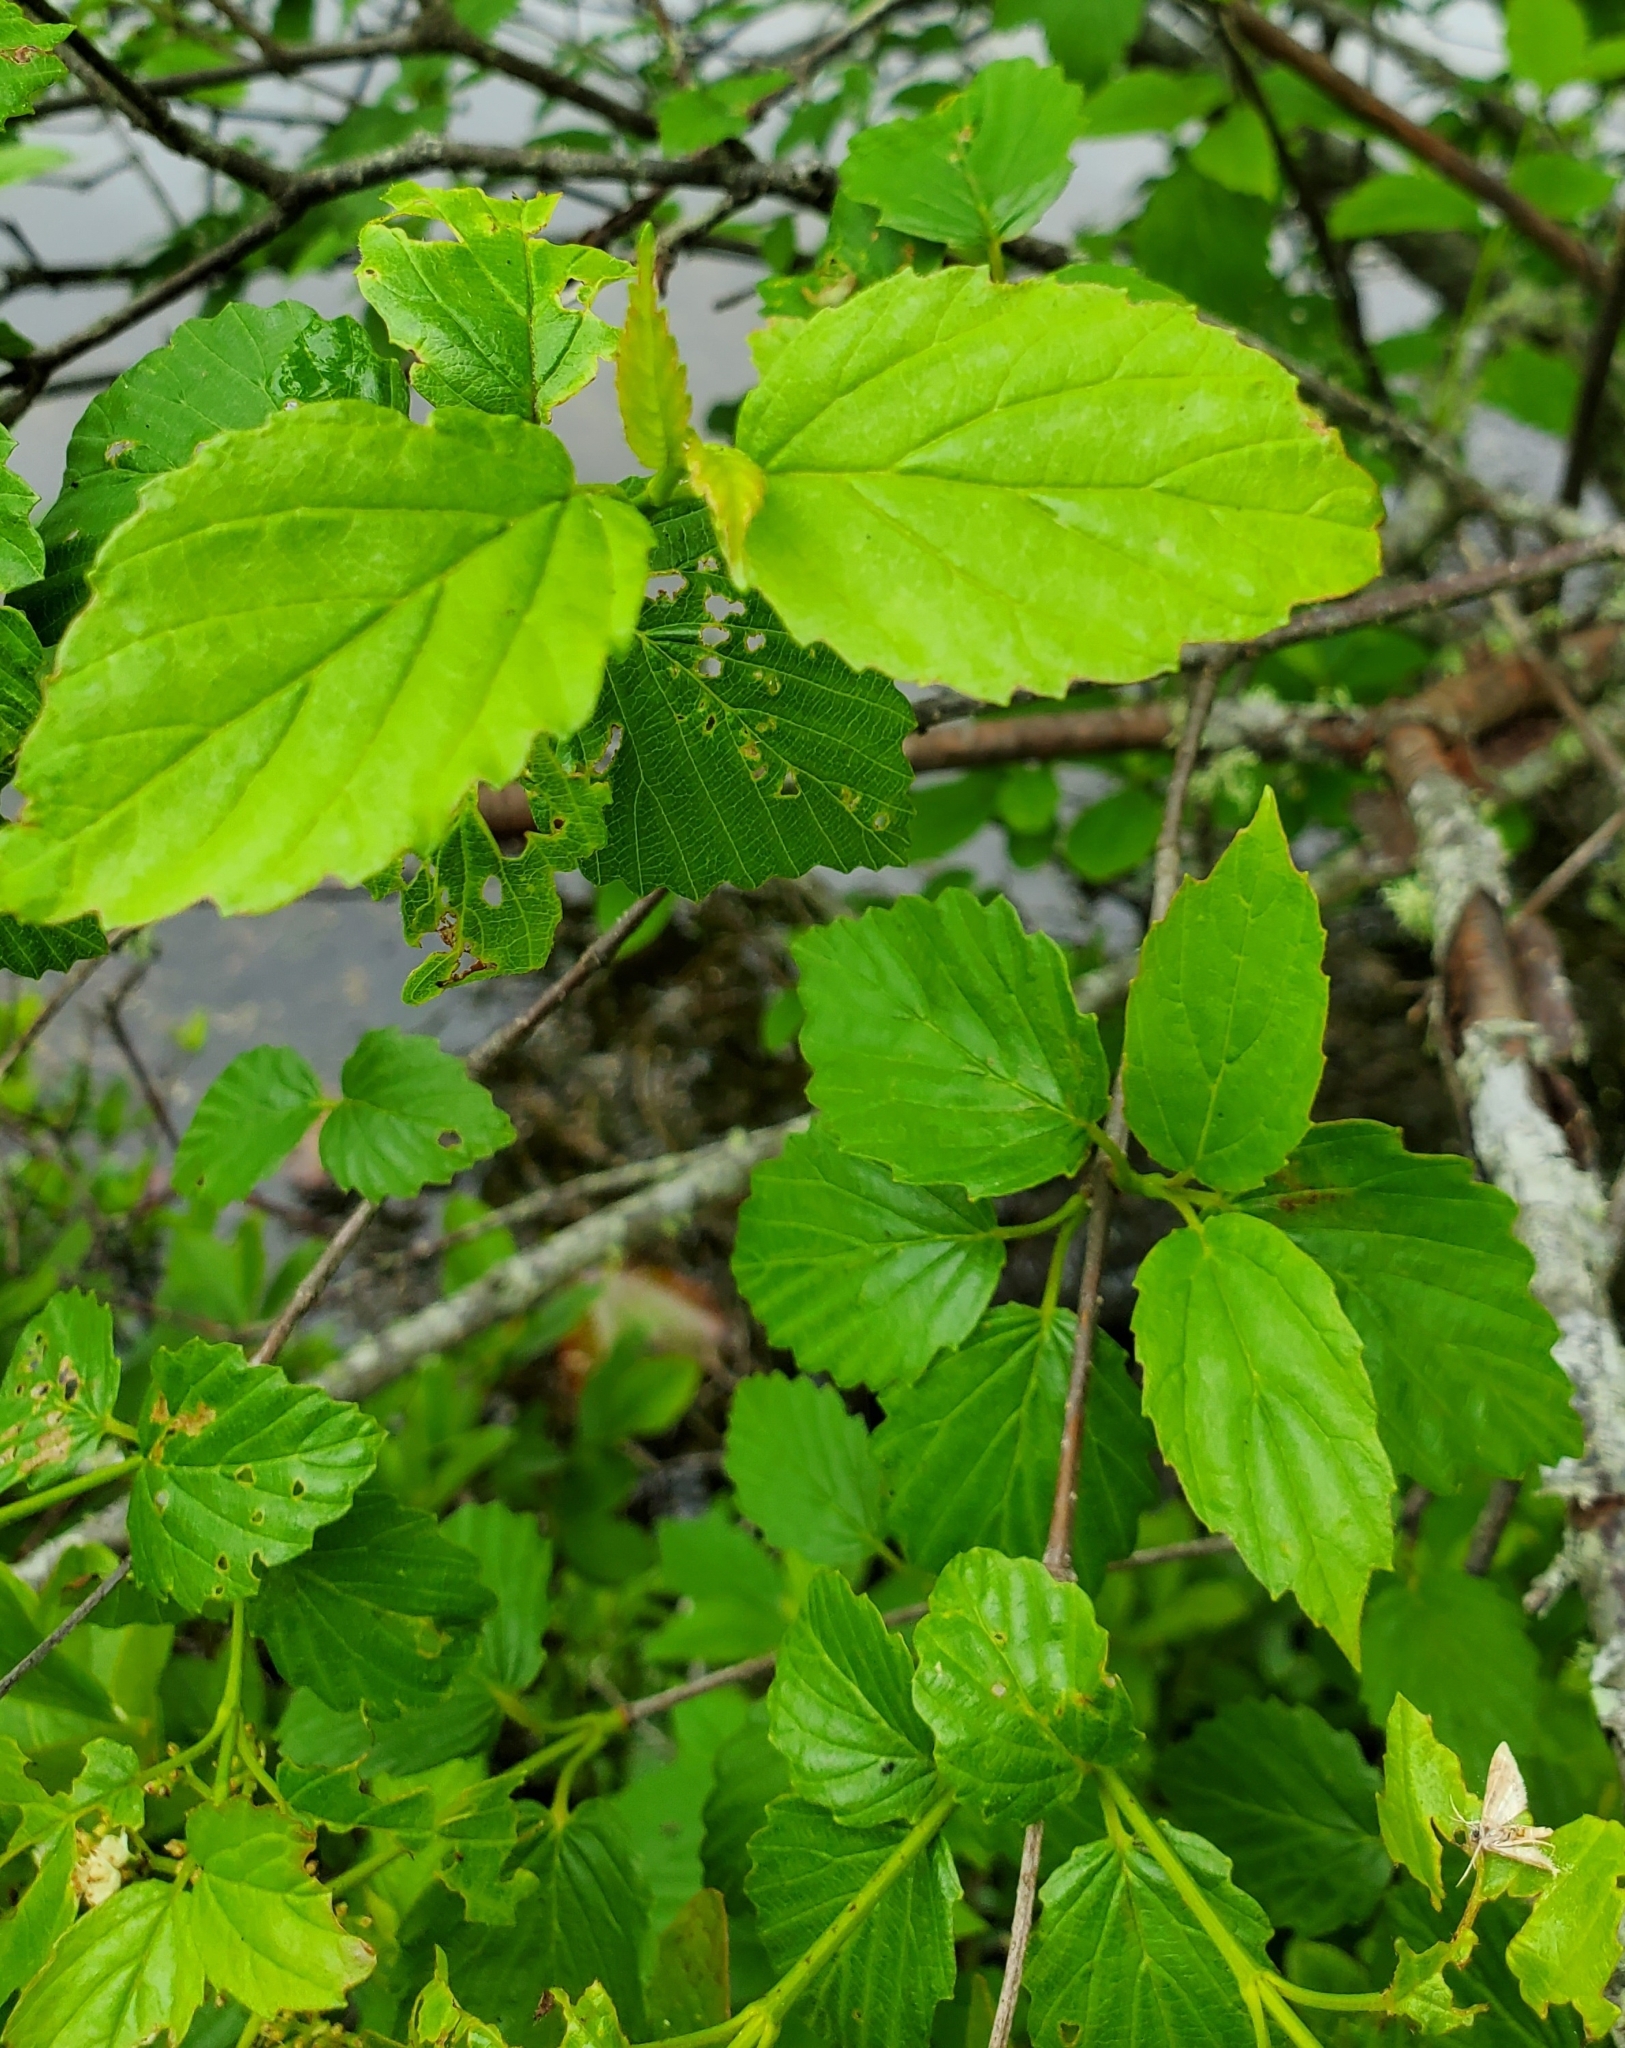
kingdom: Plantae
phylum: Tracheophyta
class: Magnoliopsida
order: Dipsacales
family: Viburnaceae
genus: Viburnum
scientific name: Viburnum recognitum
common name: Northern arrow-wood
